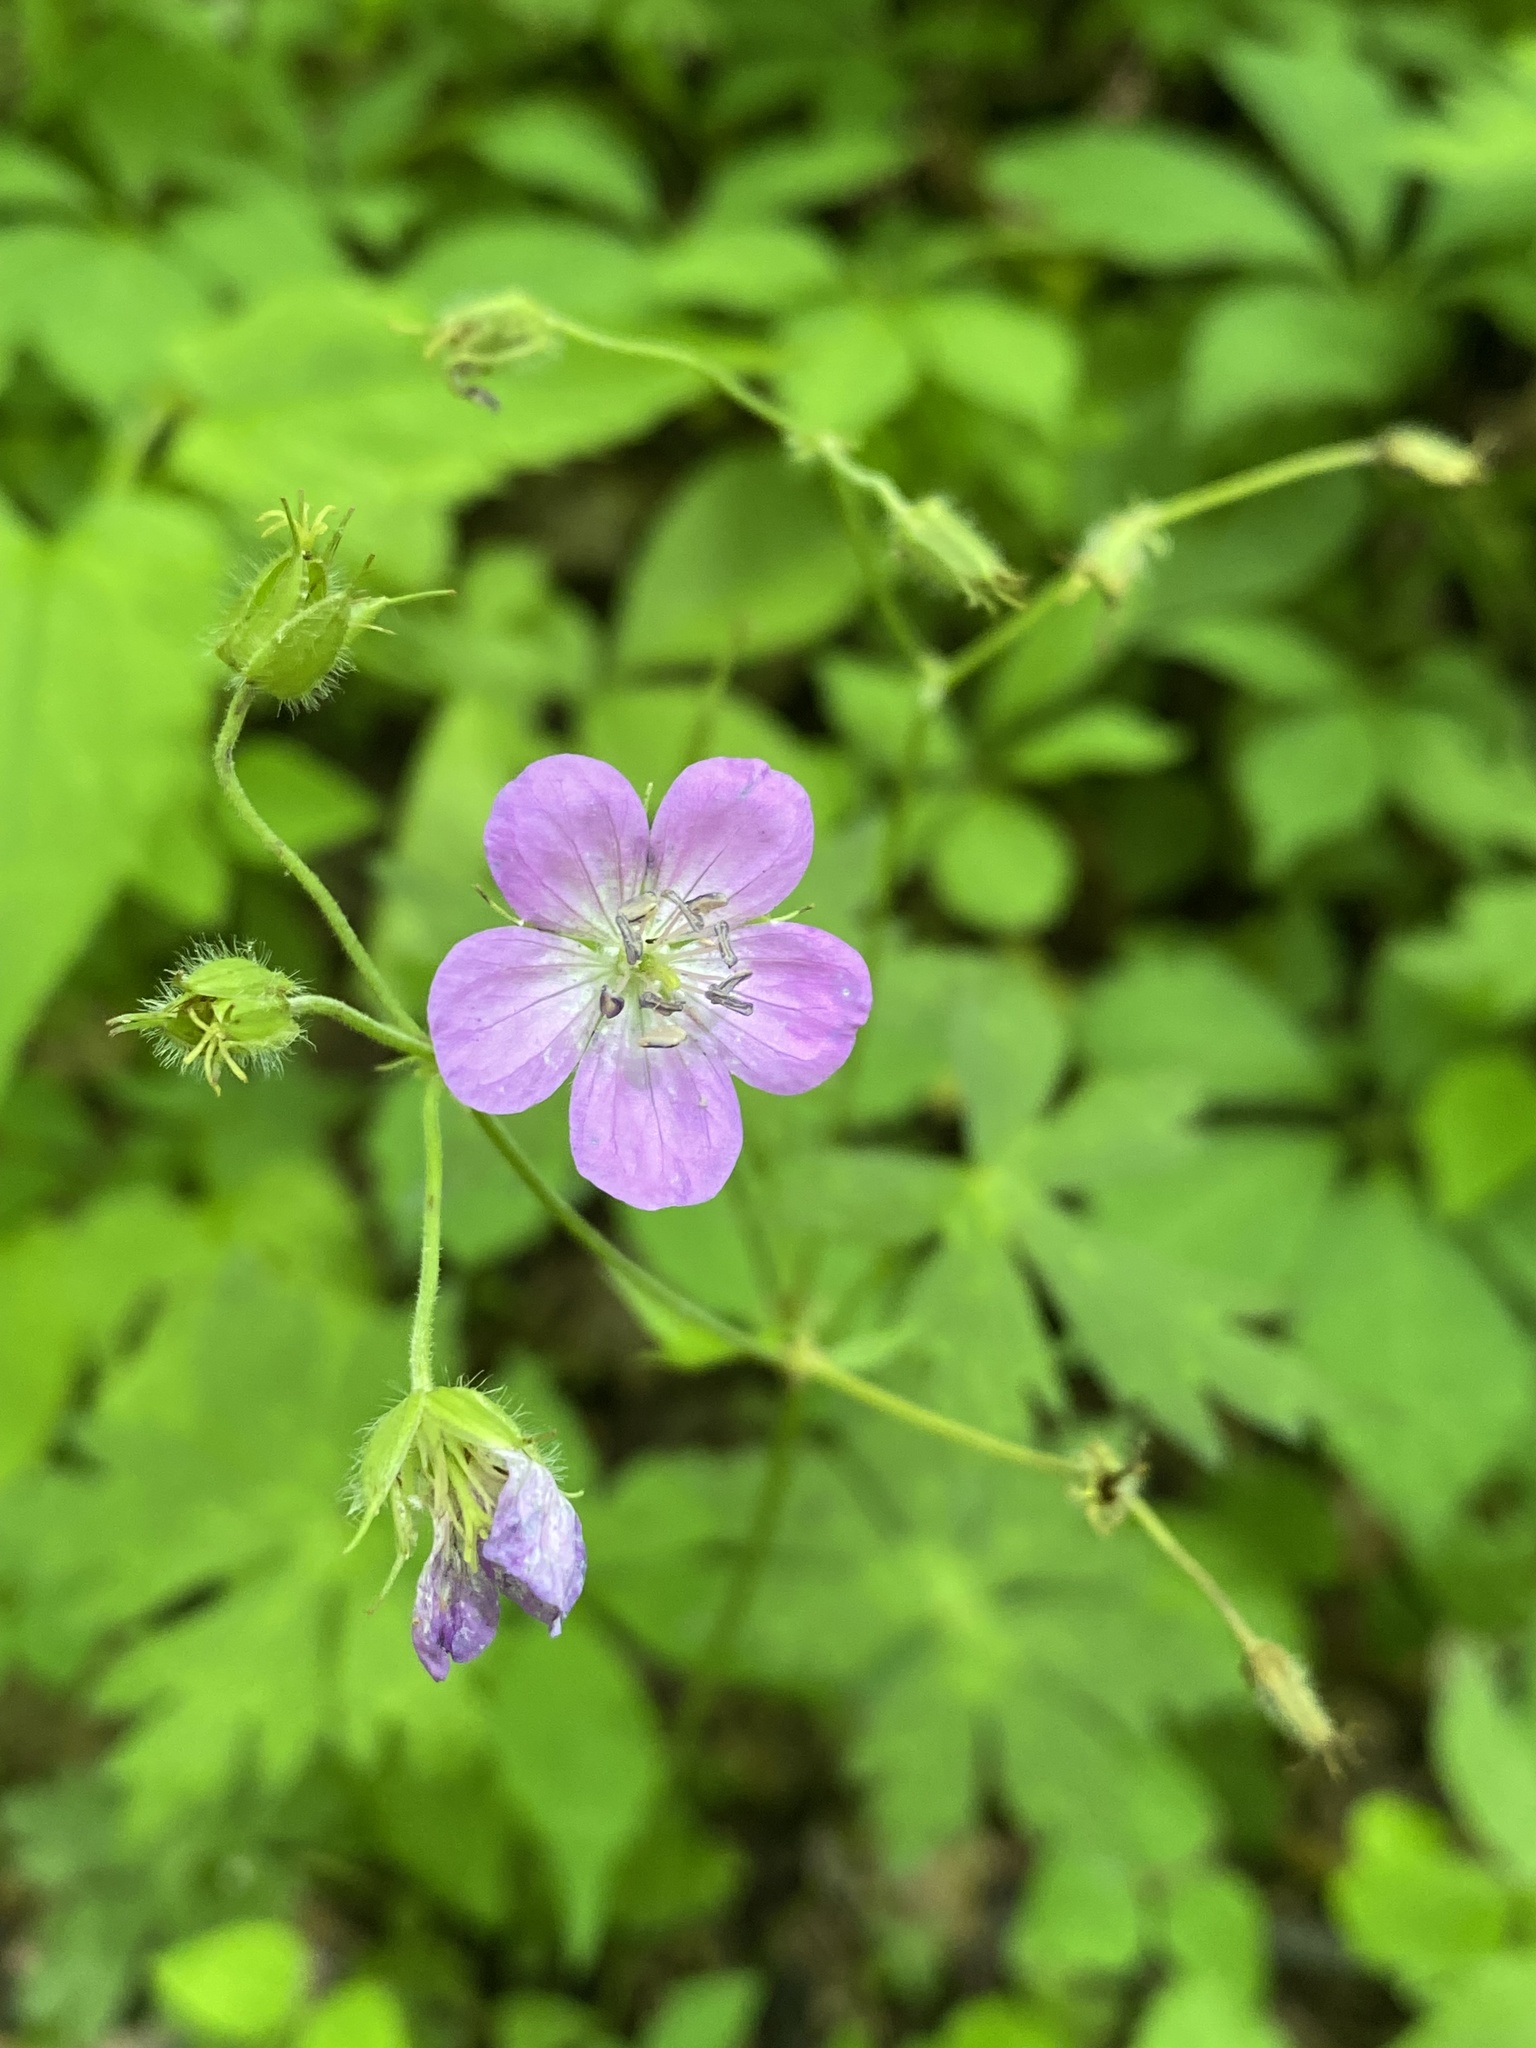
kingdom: Plantae
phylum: Tracheophyta
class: Magnoliopsida
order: Geraniales
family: Geraniaceae
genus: Geranium
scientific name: Geranium maculatum
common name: Spotted geranium
